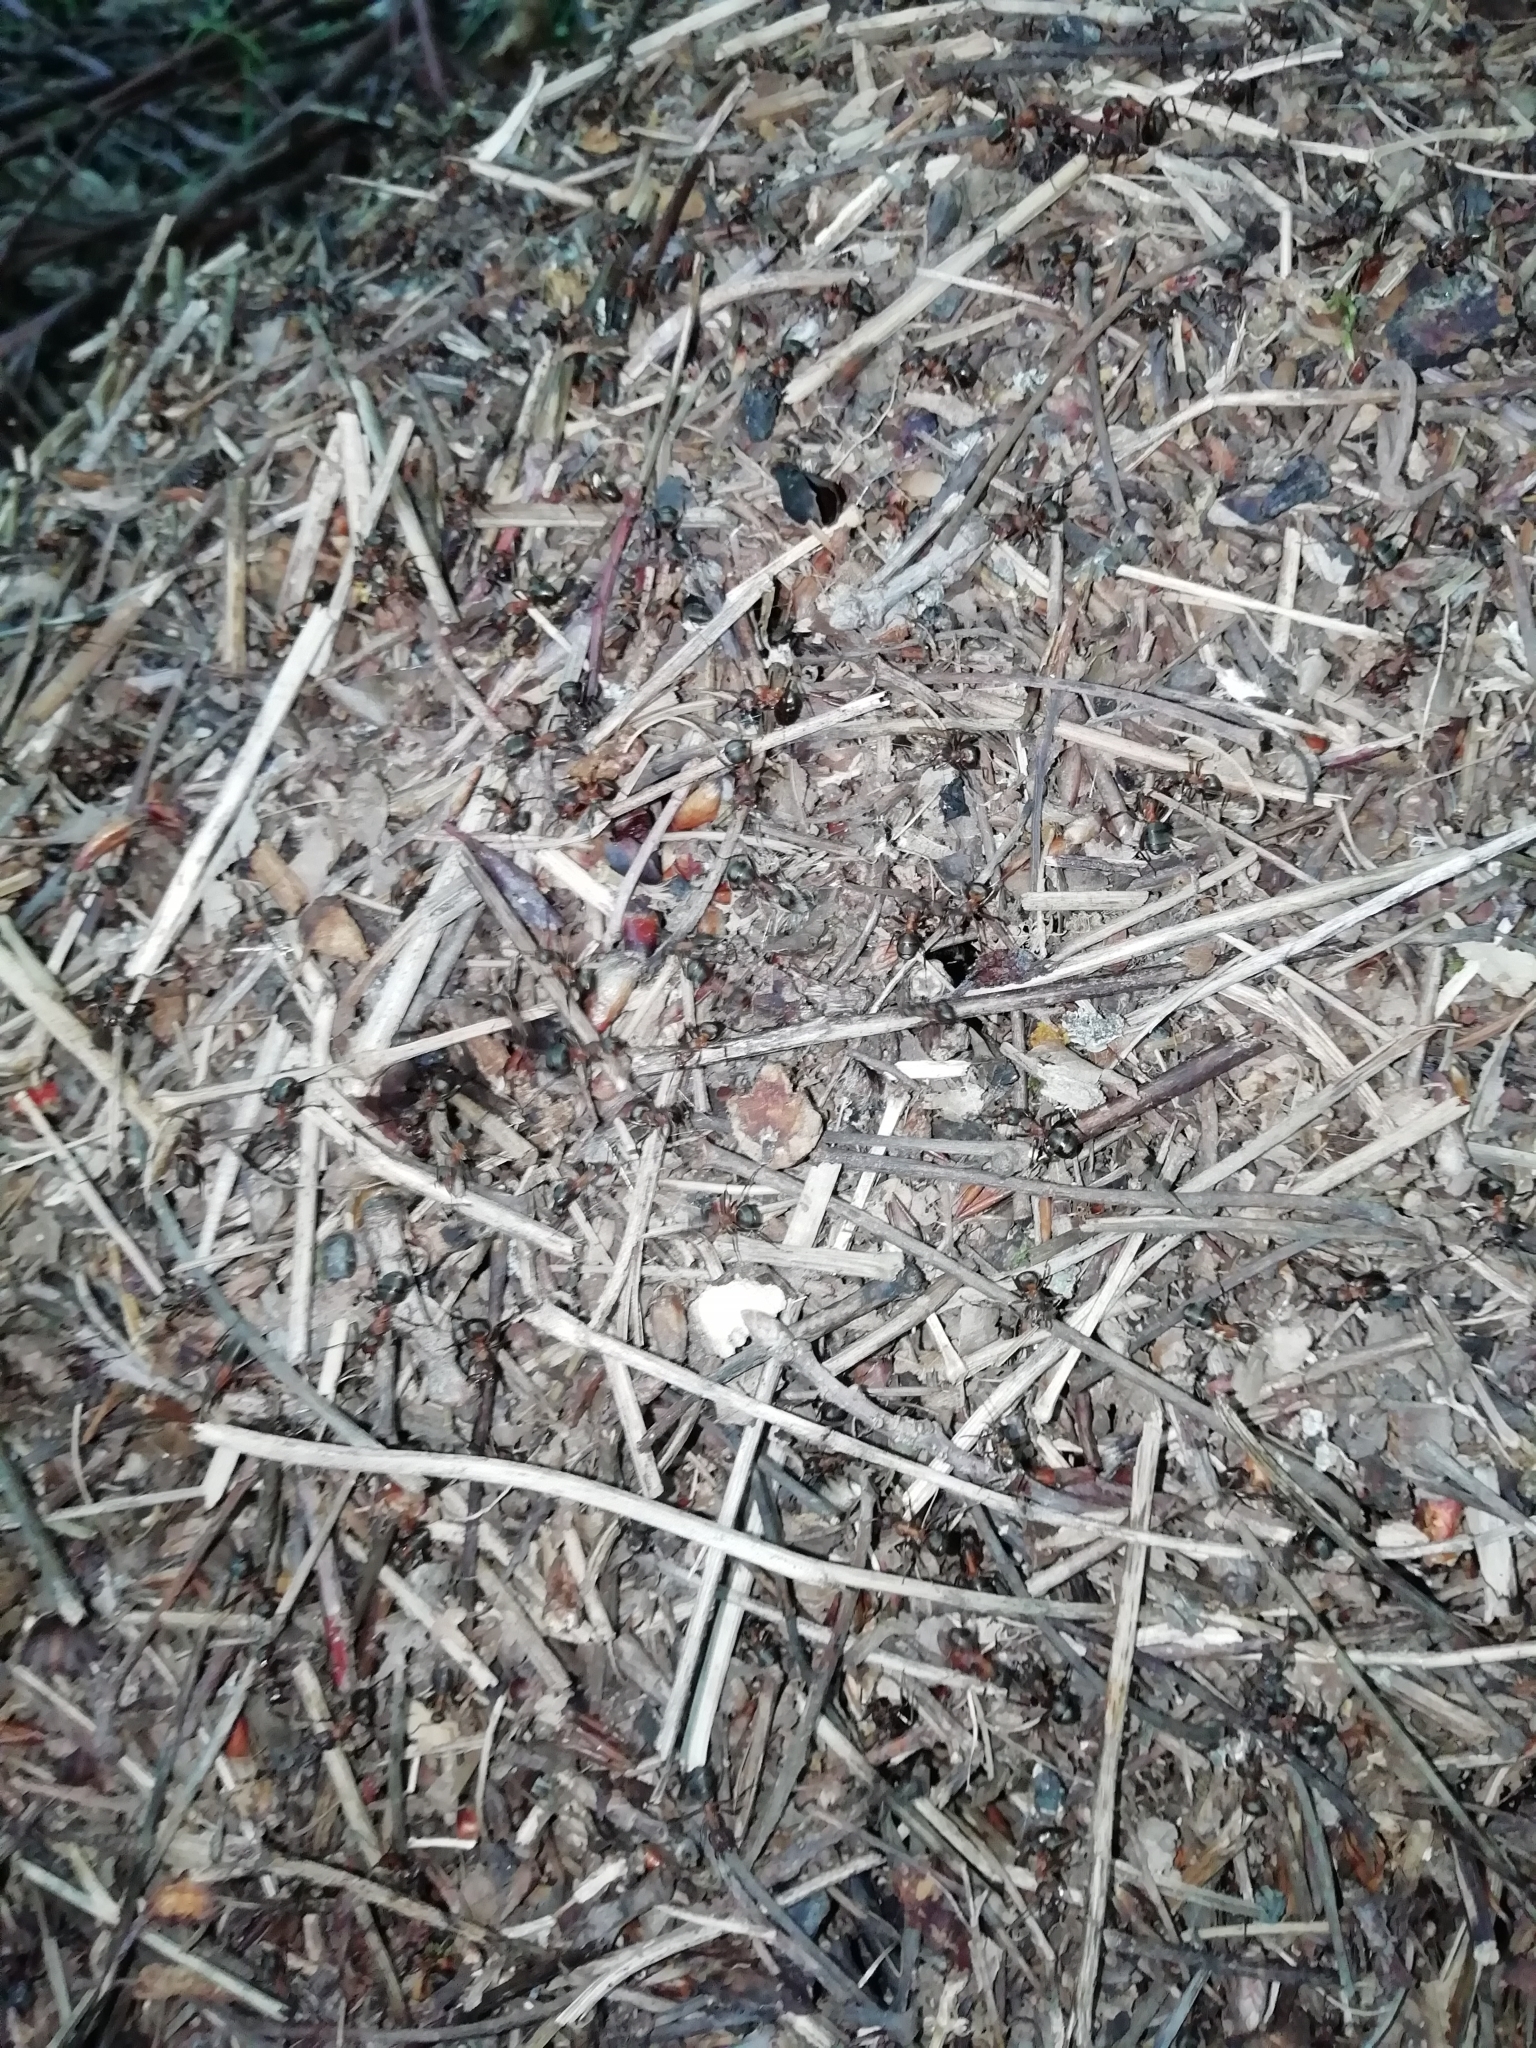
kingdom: Animalia
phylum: Arthropoda
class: Insecta
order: Hymenoptera
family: Formicidae
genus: Formica
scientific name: Formica rufa
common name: Red wood ant
